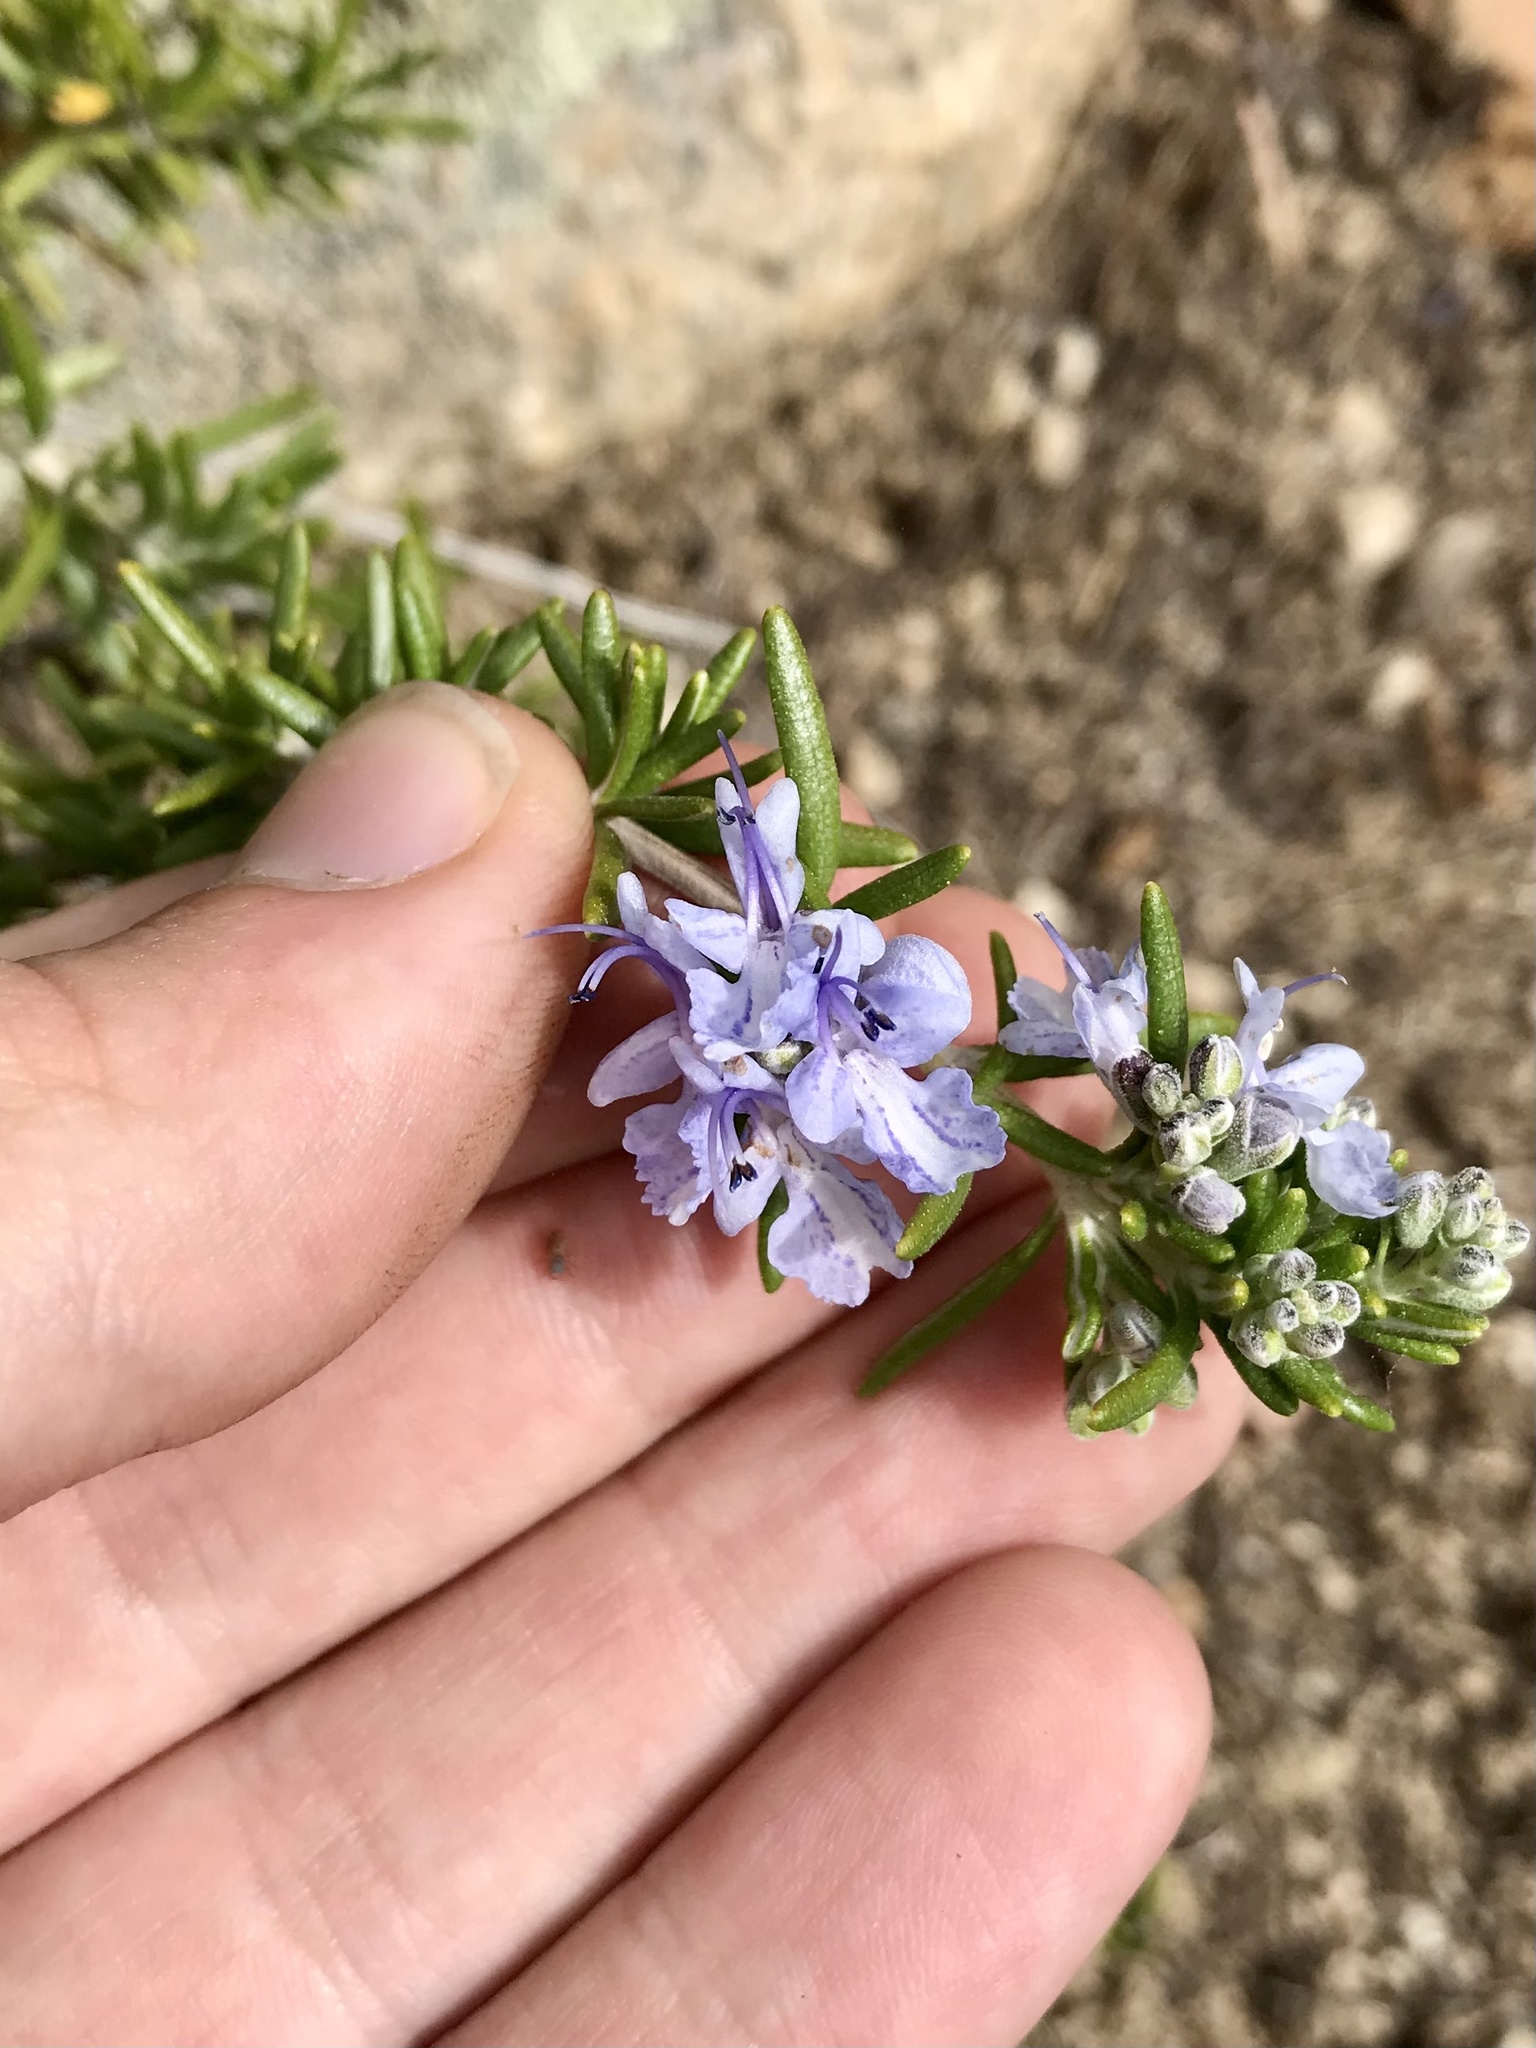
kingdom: Plantae
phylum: Tracheophyta
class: Magnoliopsida
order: Lamiales
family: Lamiaceae
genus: Salvia
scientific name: Salvia rosmarinus
